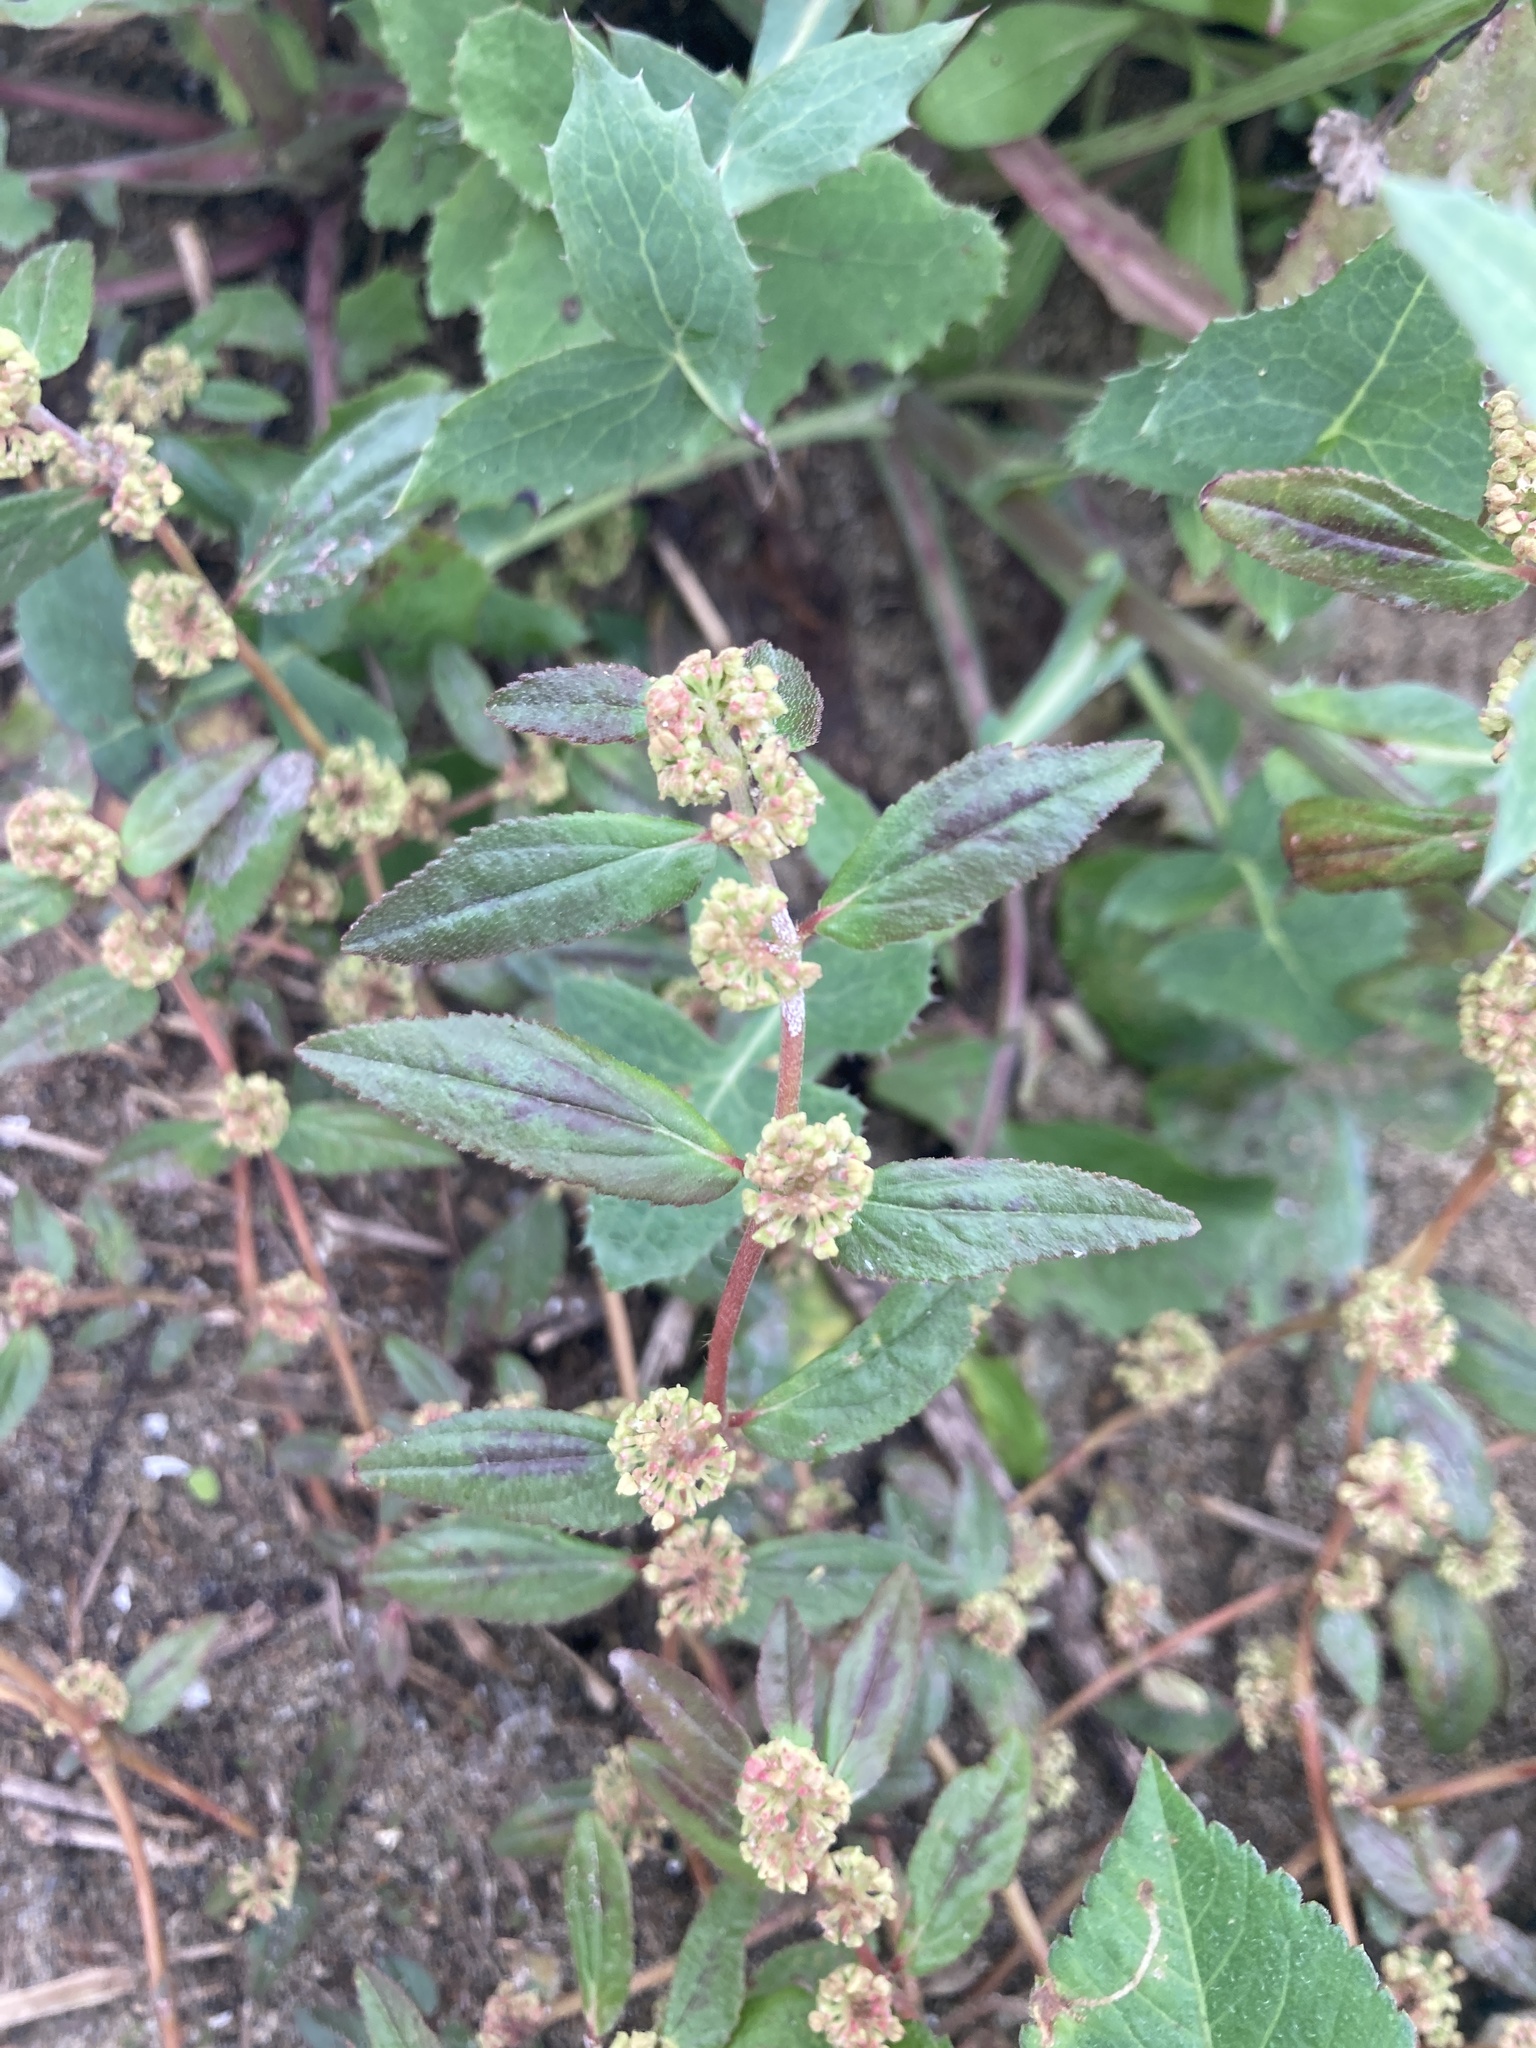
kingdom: Plantae
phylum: Tracheophyta
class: Magnoliopsida
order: Malpighiales
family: Euphorbiaceae
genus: Euphorbia
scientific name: Euphorbia hirta
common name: Pillpod sandmat
